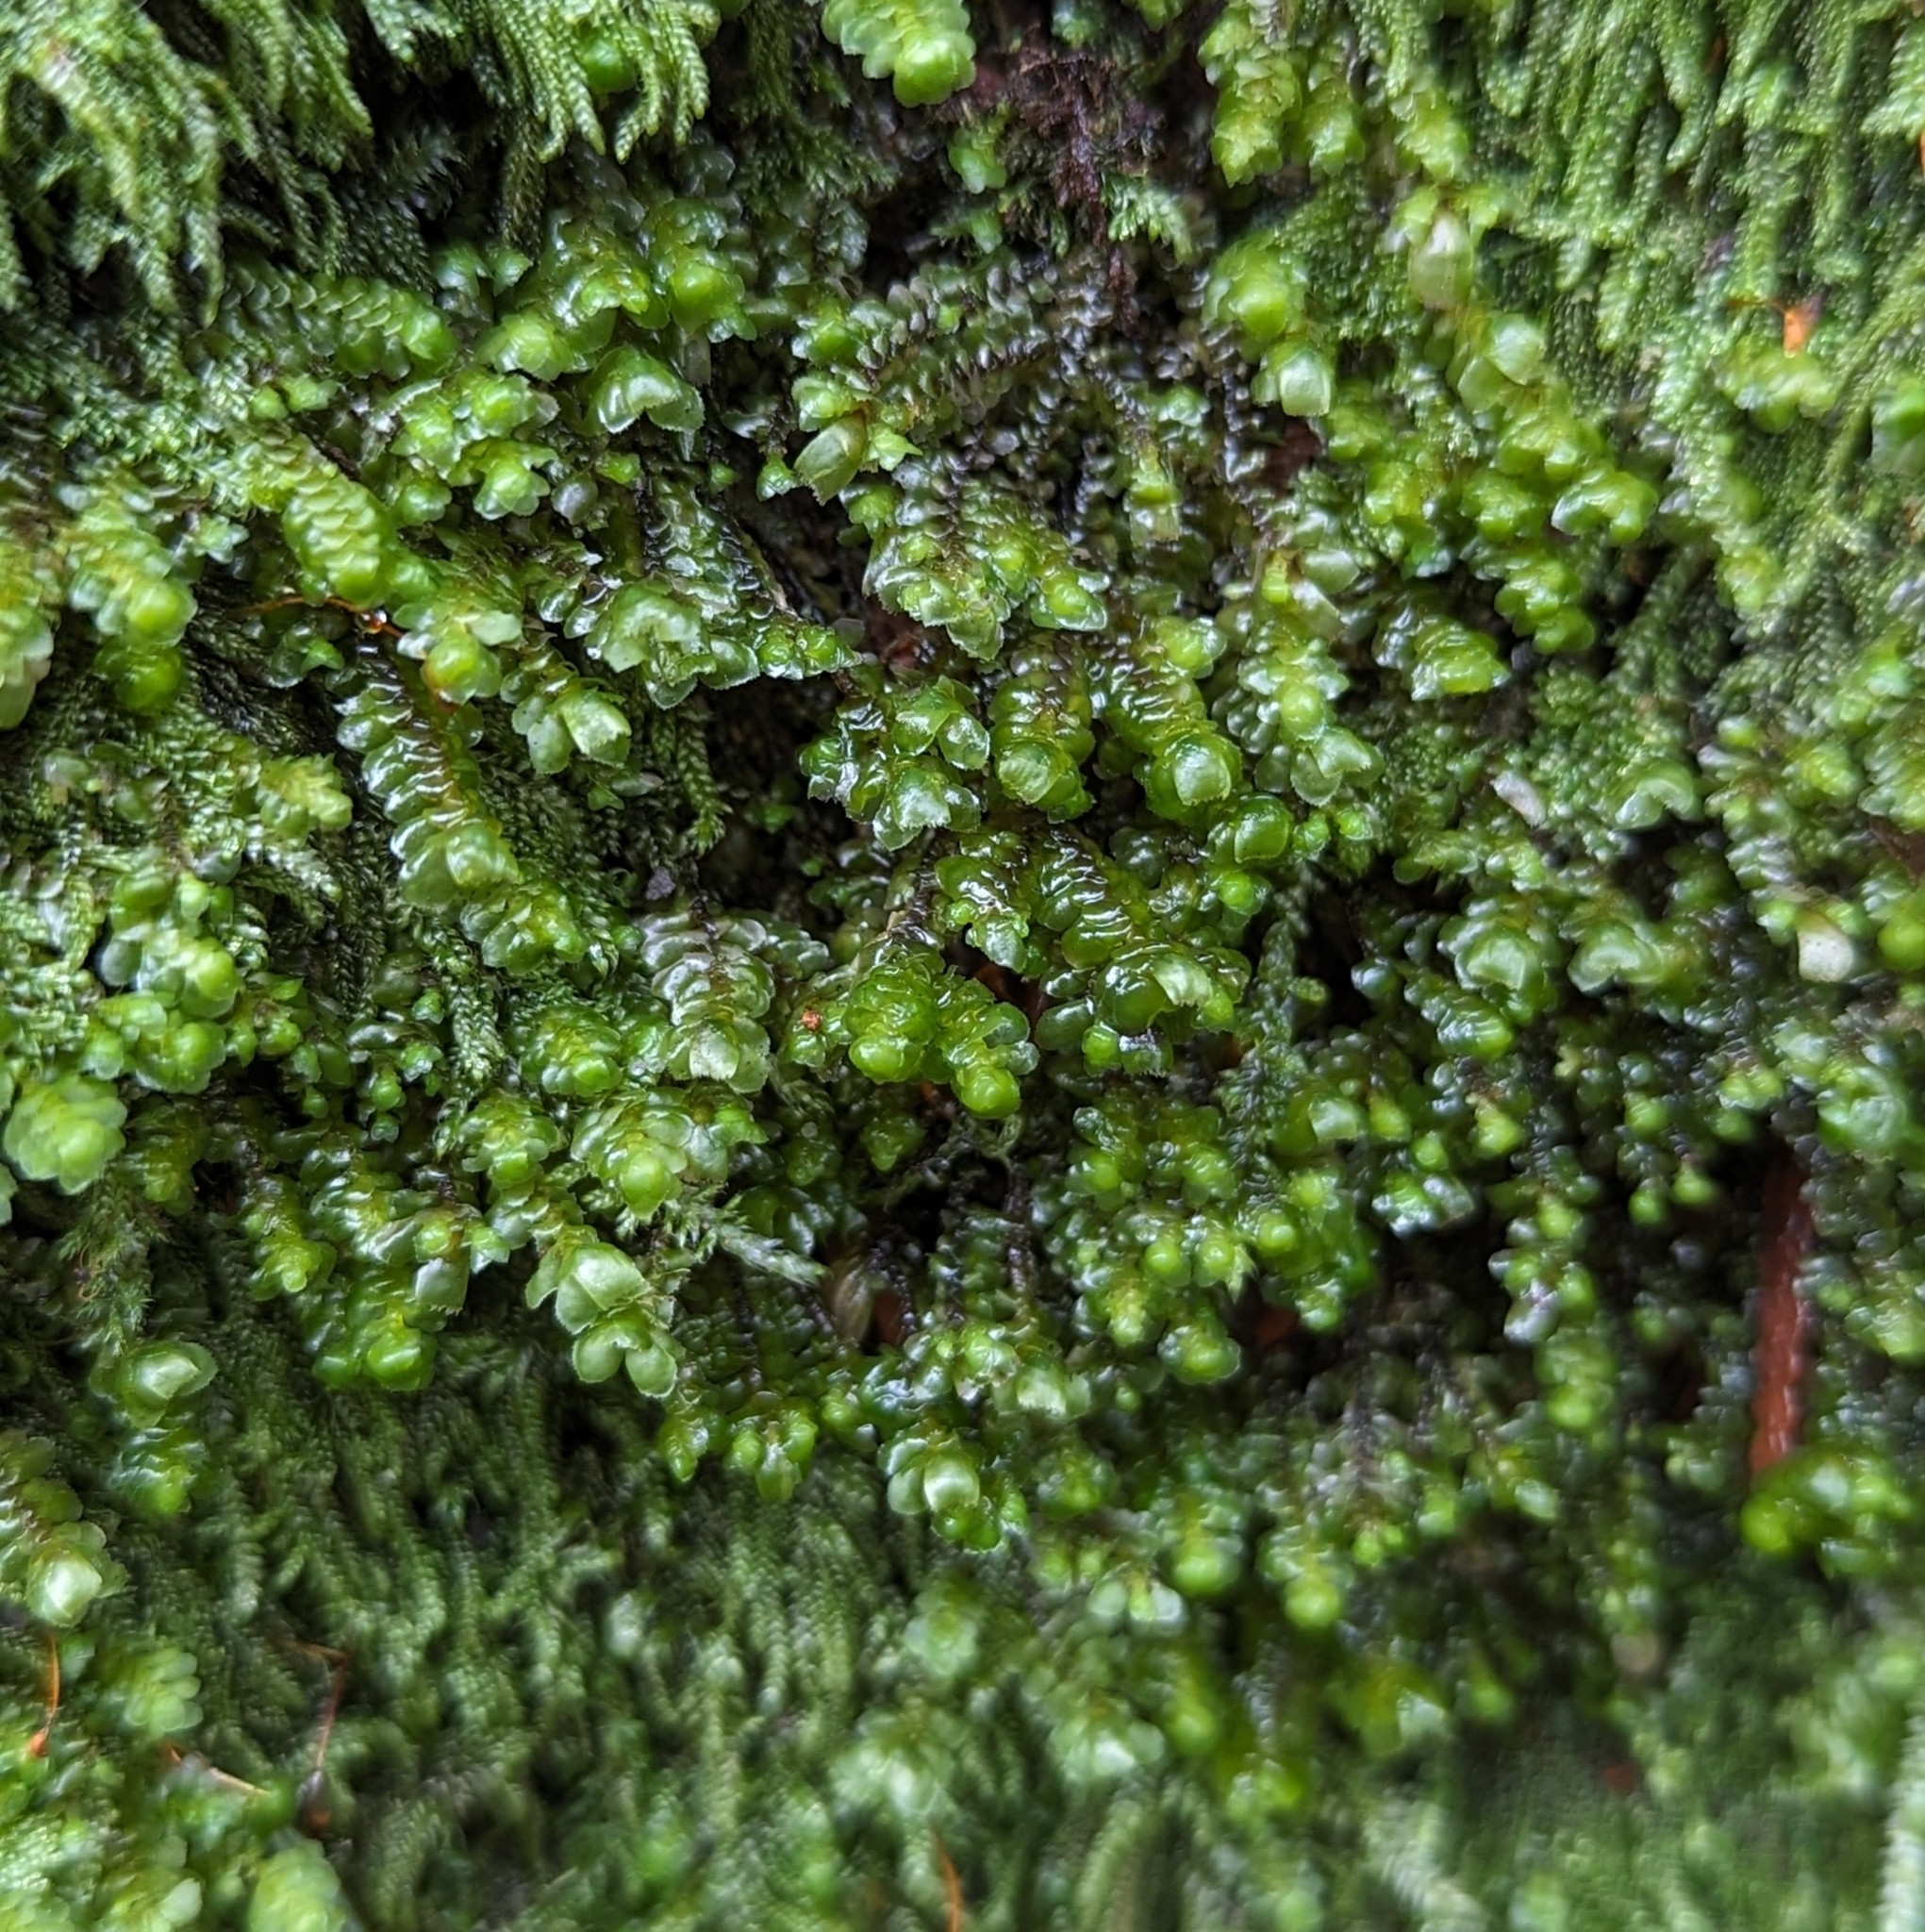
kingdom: Plantae
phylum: Marchantiophyta
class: Jungermanniopsida
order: Jungermanniales
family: Scapaniaceae
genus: Scapania
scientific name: Scapania bolanderi
